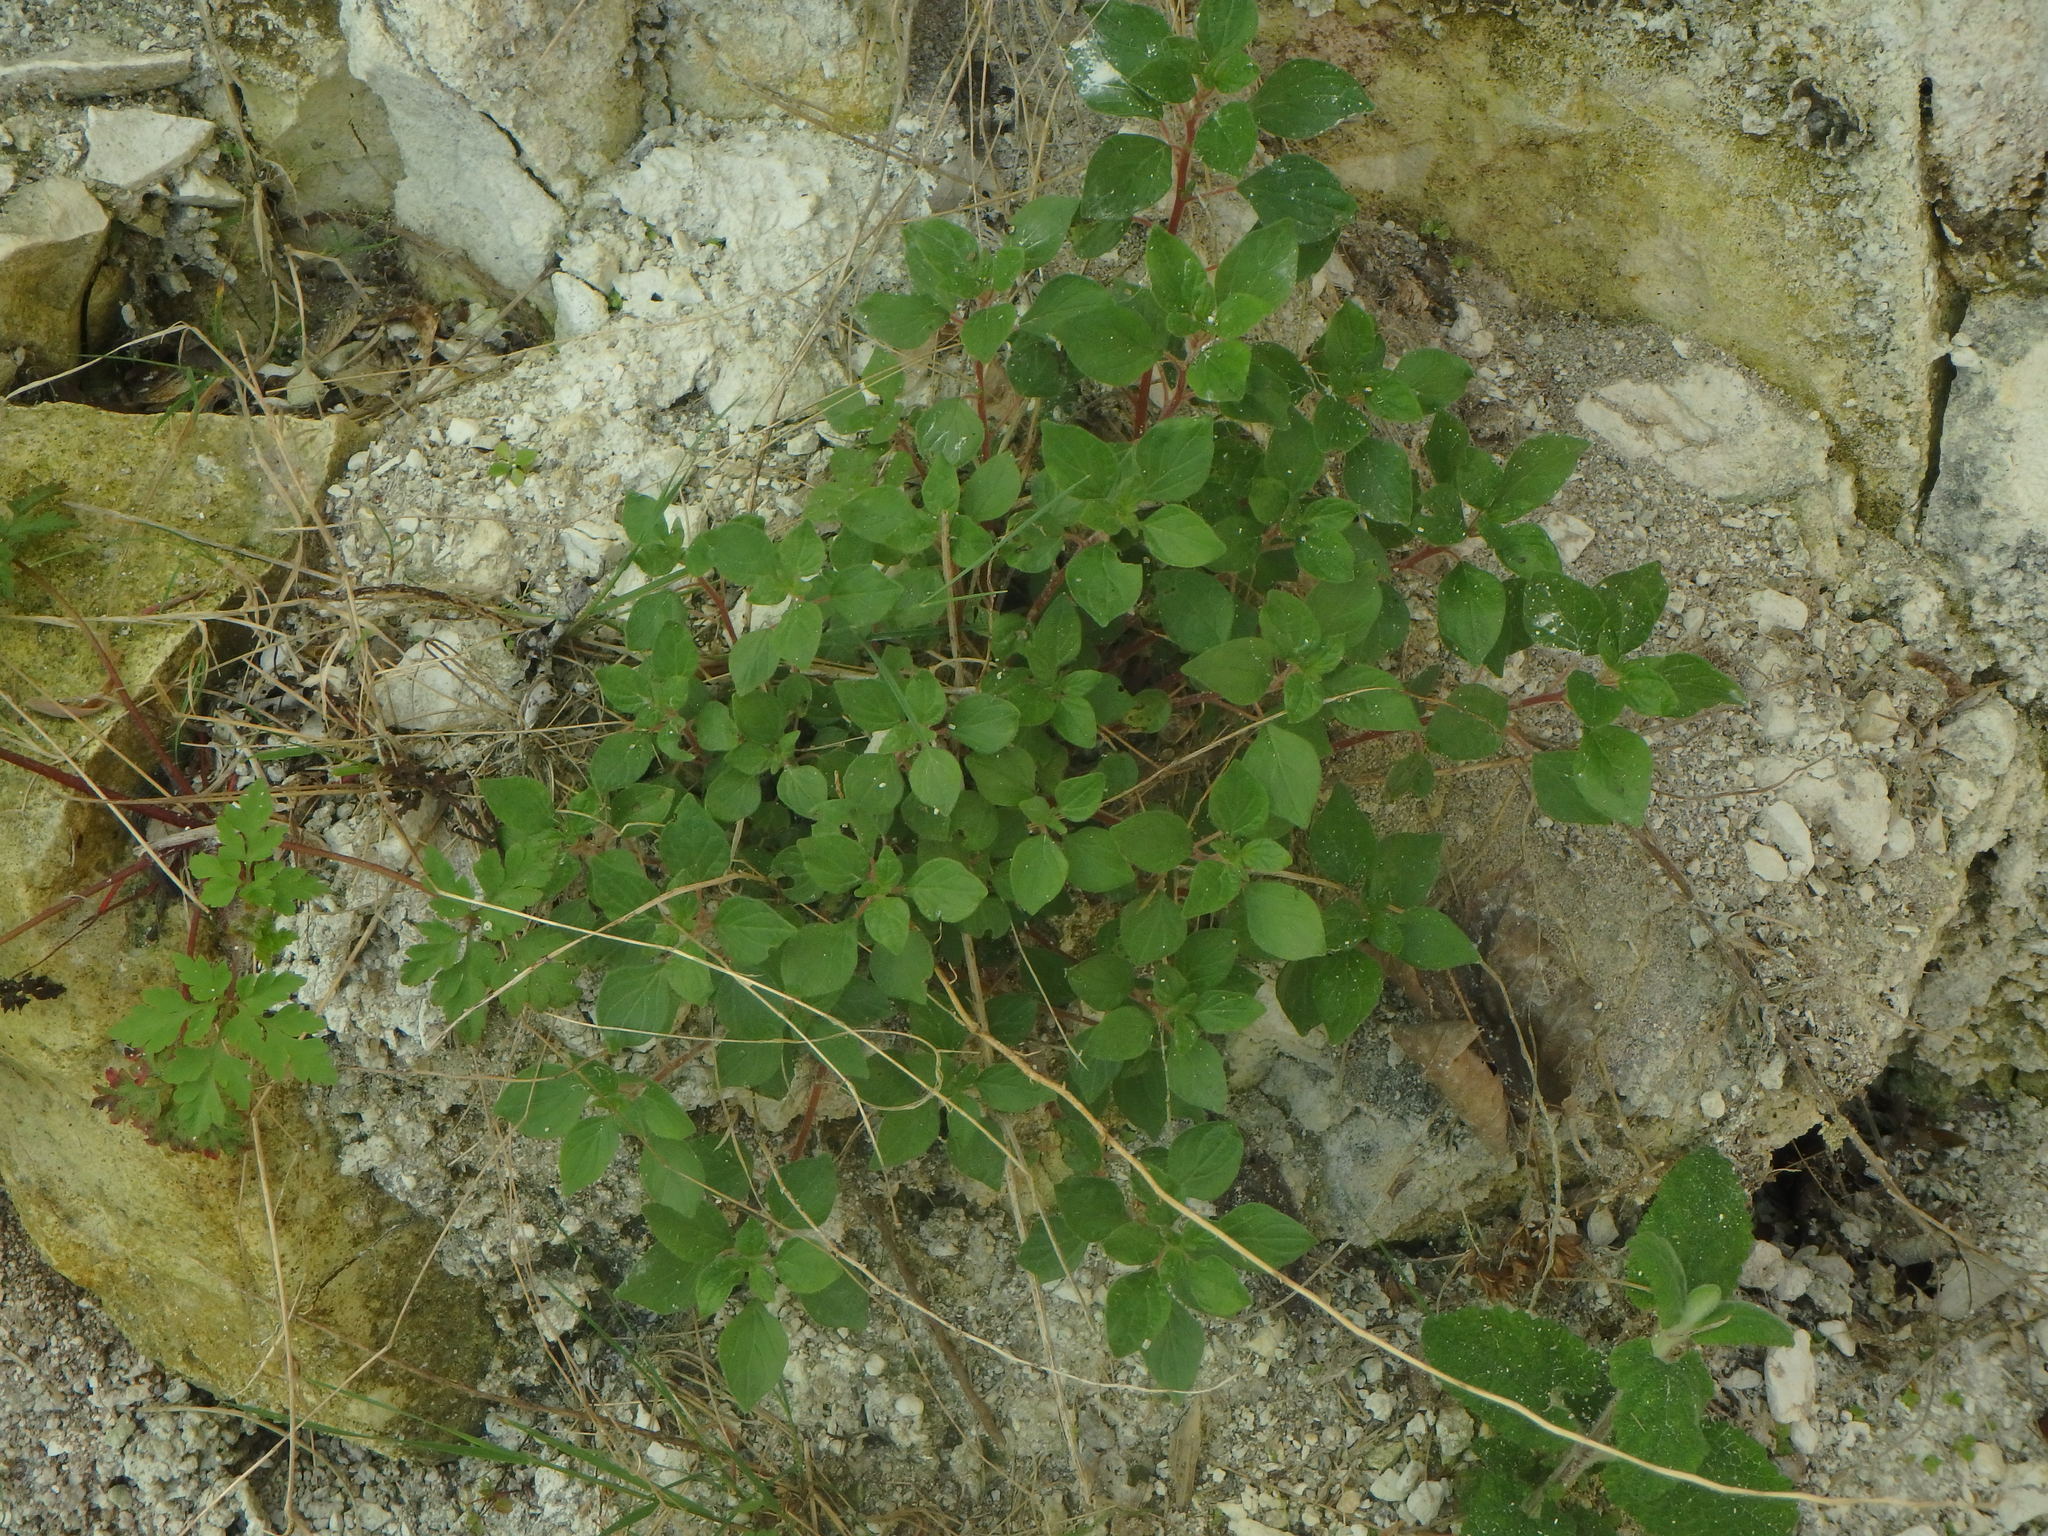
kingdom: Plantae
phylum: Tracheophyta
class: Magnoliopsida
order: Rosales
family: Urticaceae
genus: Parietaria
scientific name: Parietaria judaica
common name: Pellitory-of-the-wall
